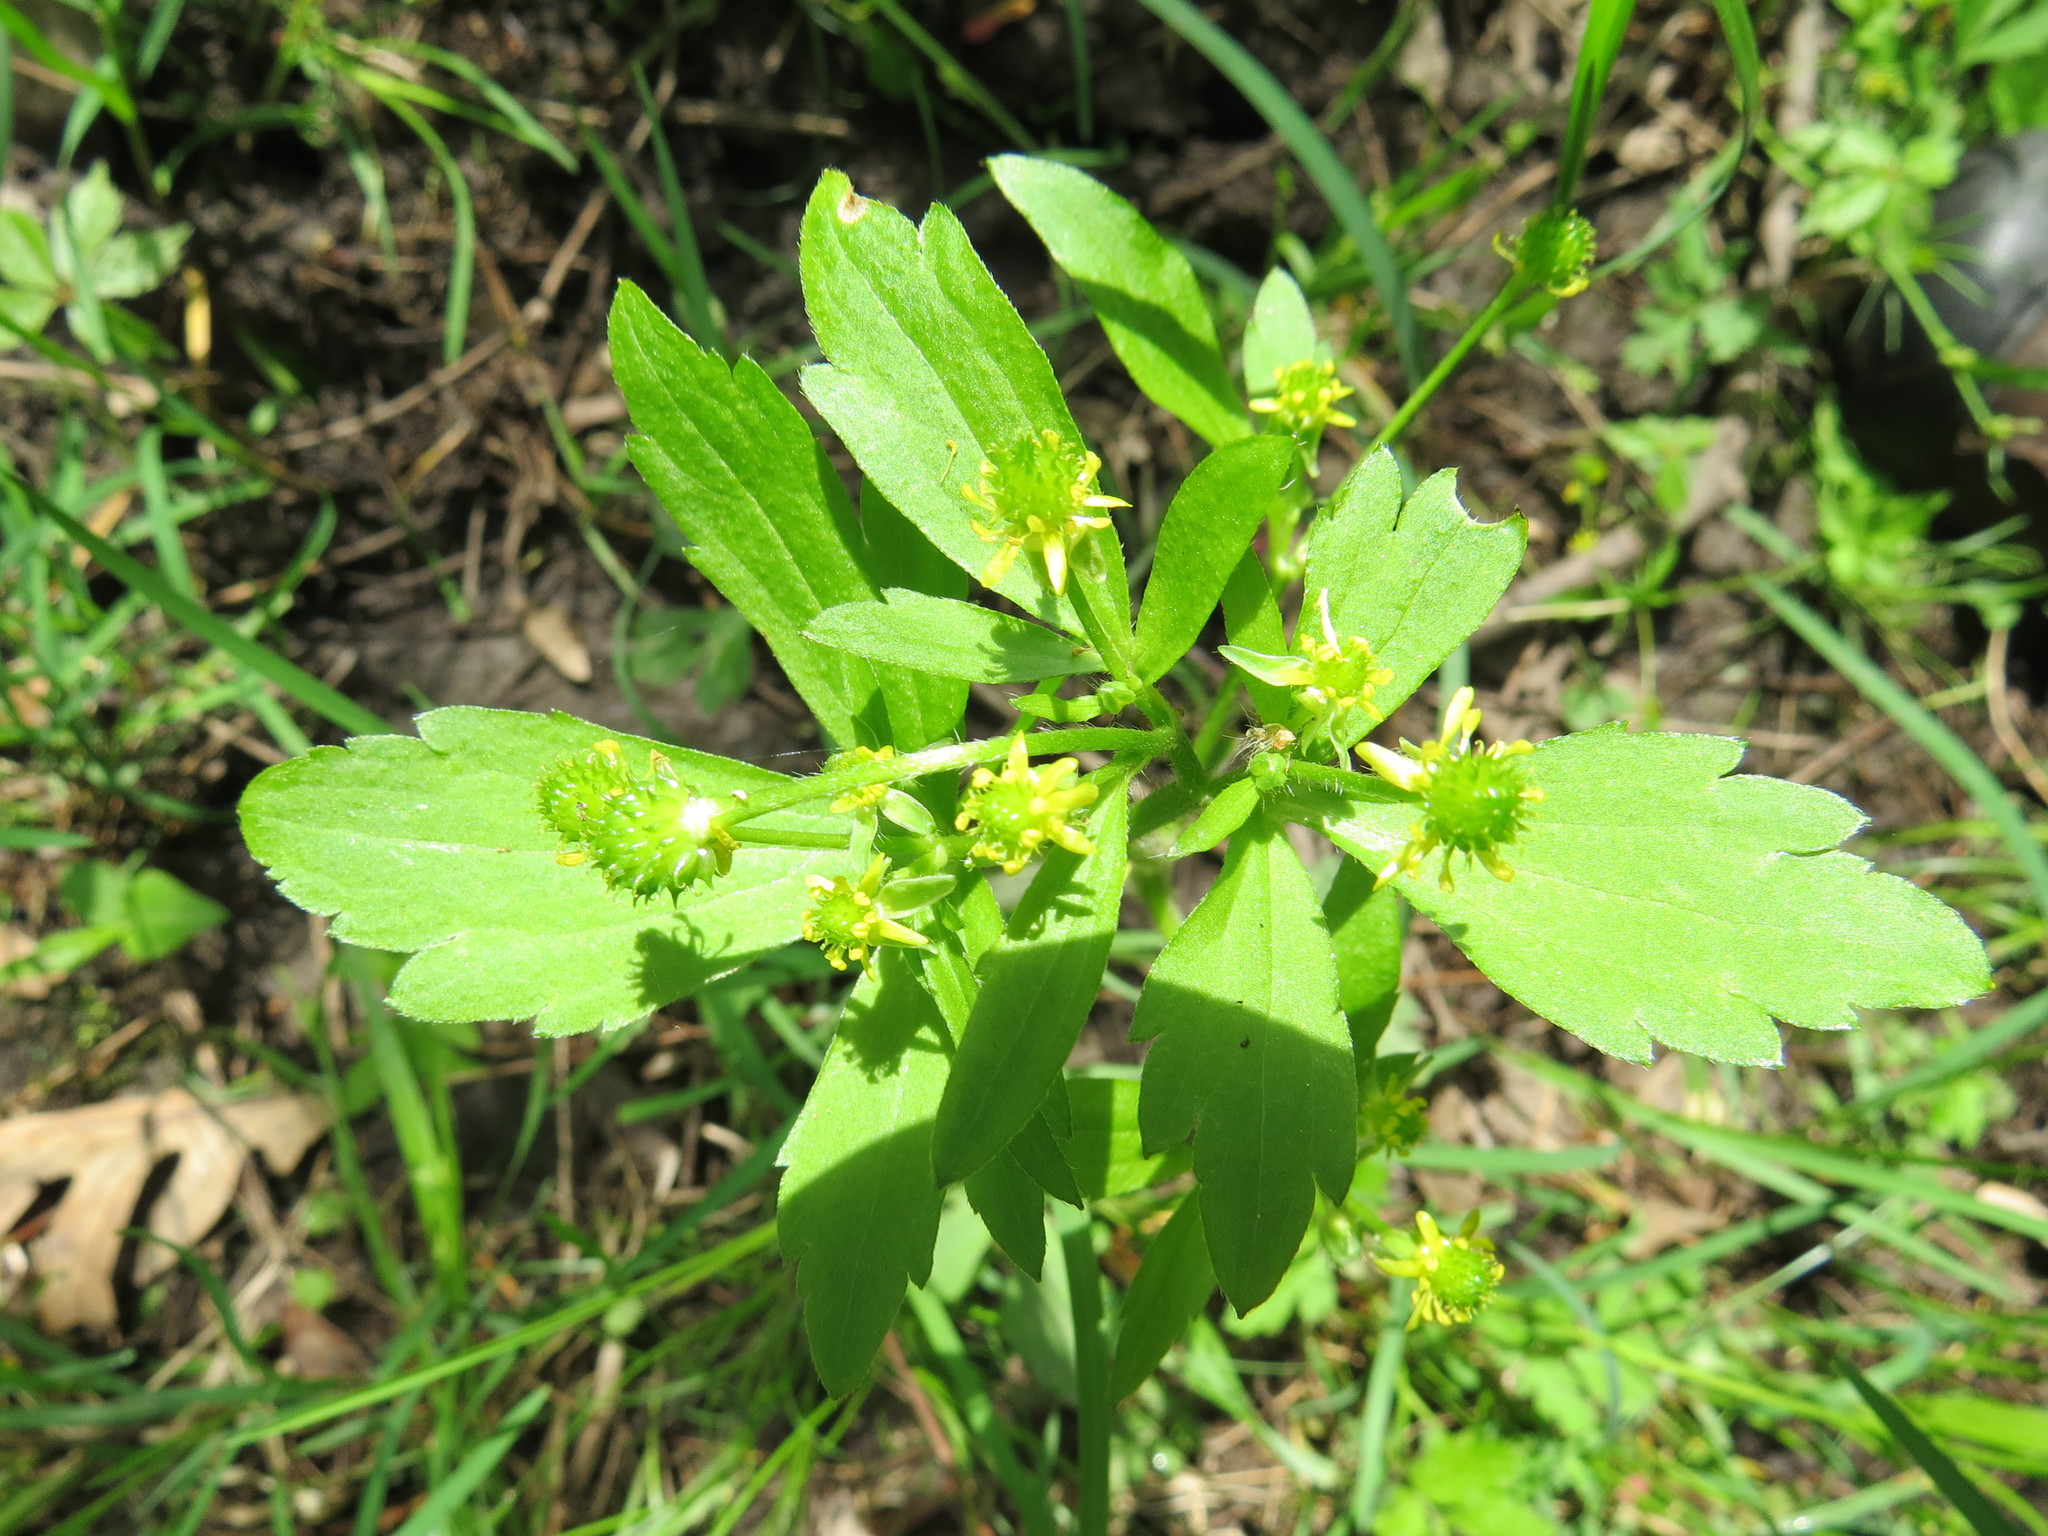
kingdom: Plantae
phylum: Tracheophyta
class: Magnoliopsida
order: Ranunculales
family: Ranunculaceae
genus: Ranunculus
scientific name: Ranunculus recurvatus
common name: Blisterwort
